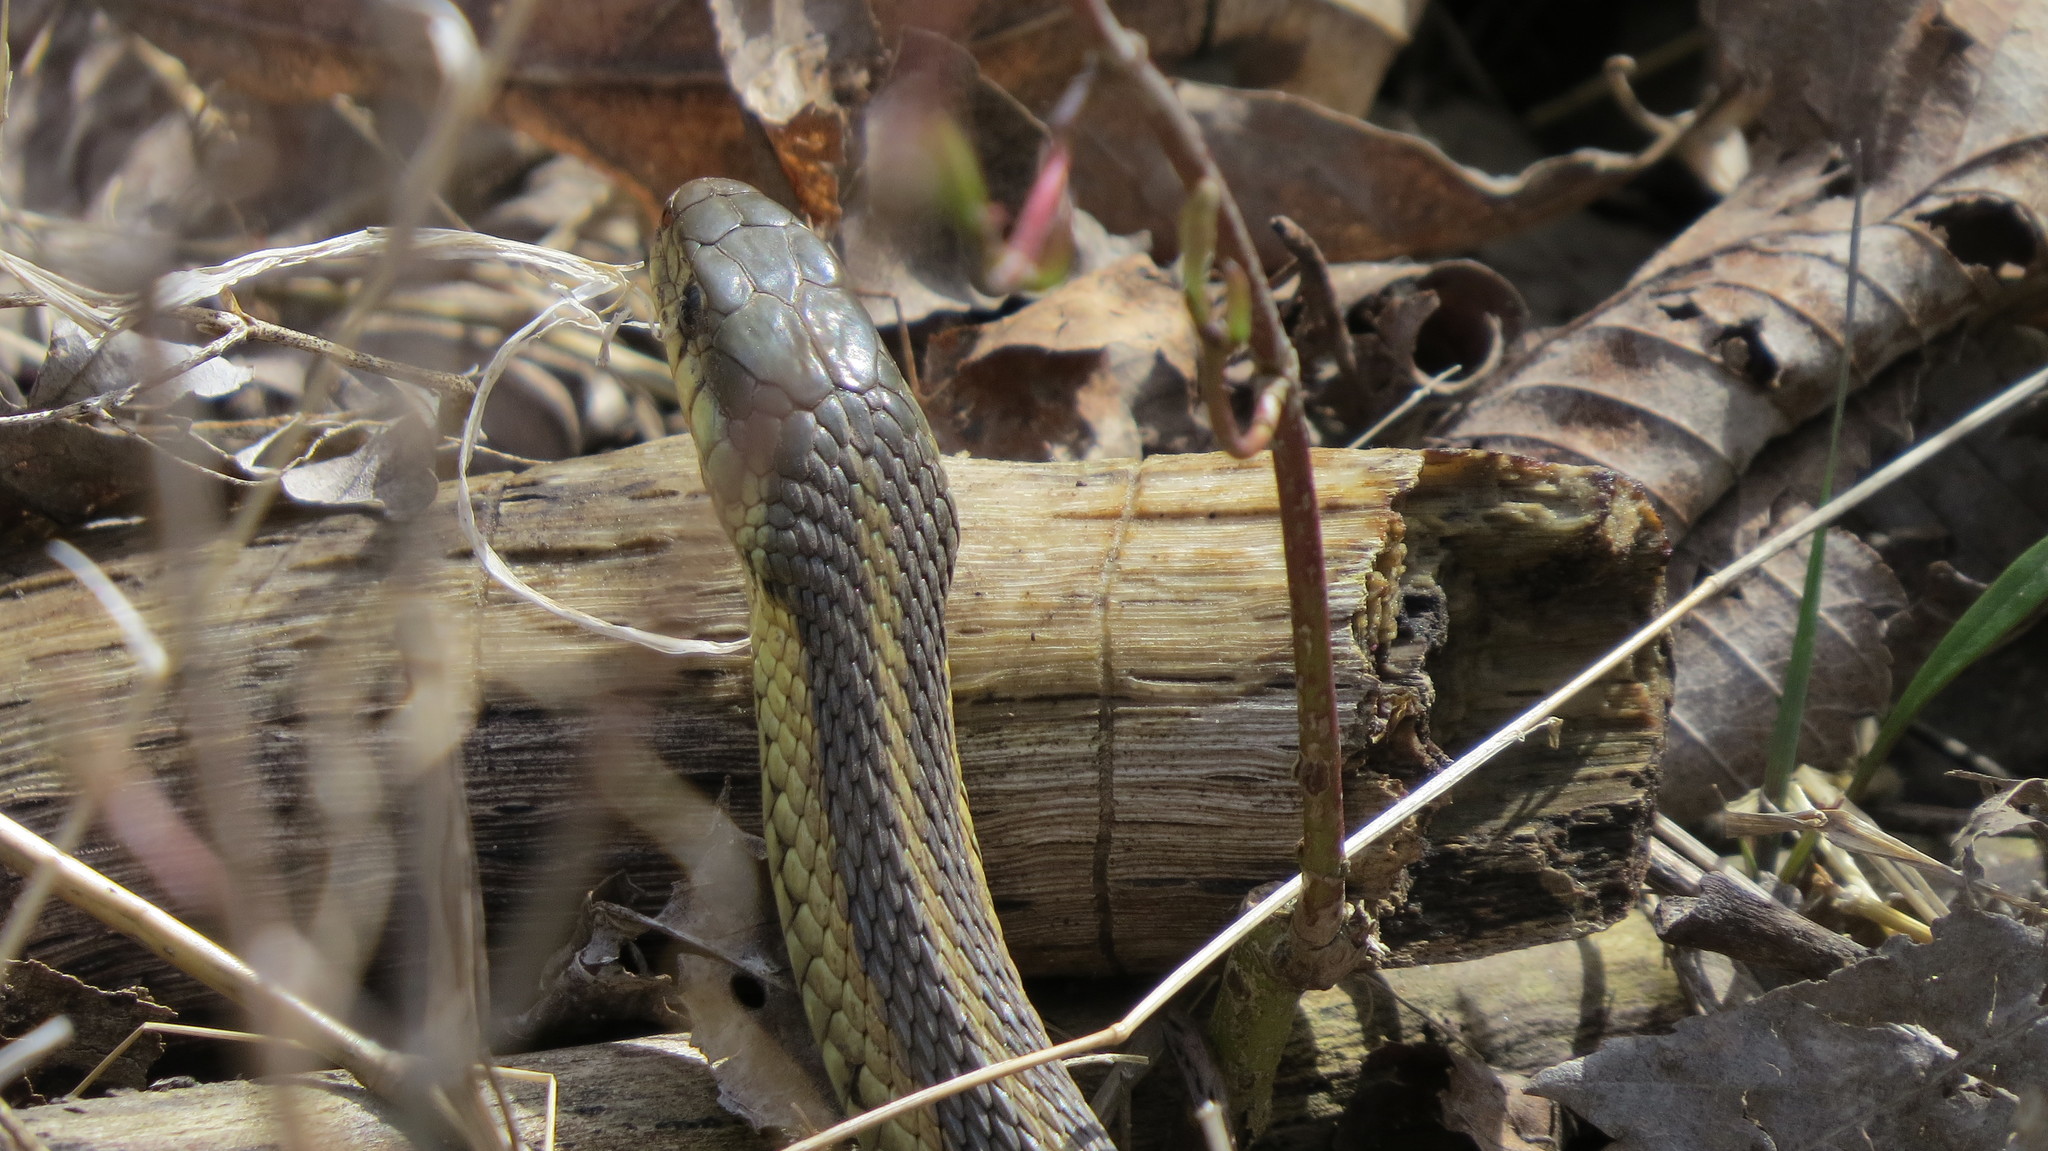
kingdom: Animalia
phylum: Chordata
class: Squamata
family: Colubridae
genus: Thamnophis
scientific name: Thamnophis sirtalis
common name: Common garter snake
